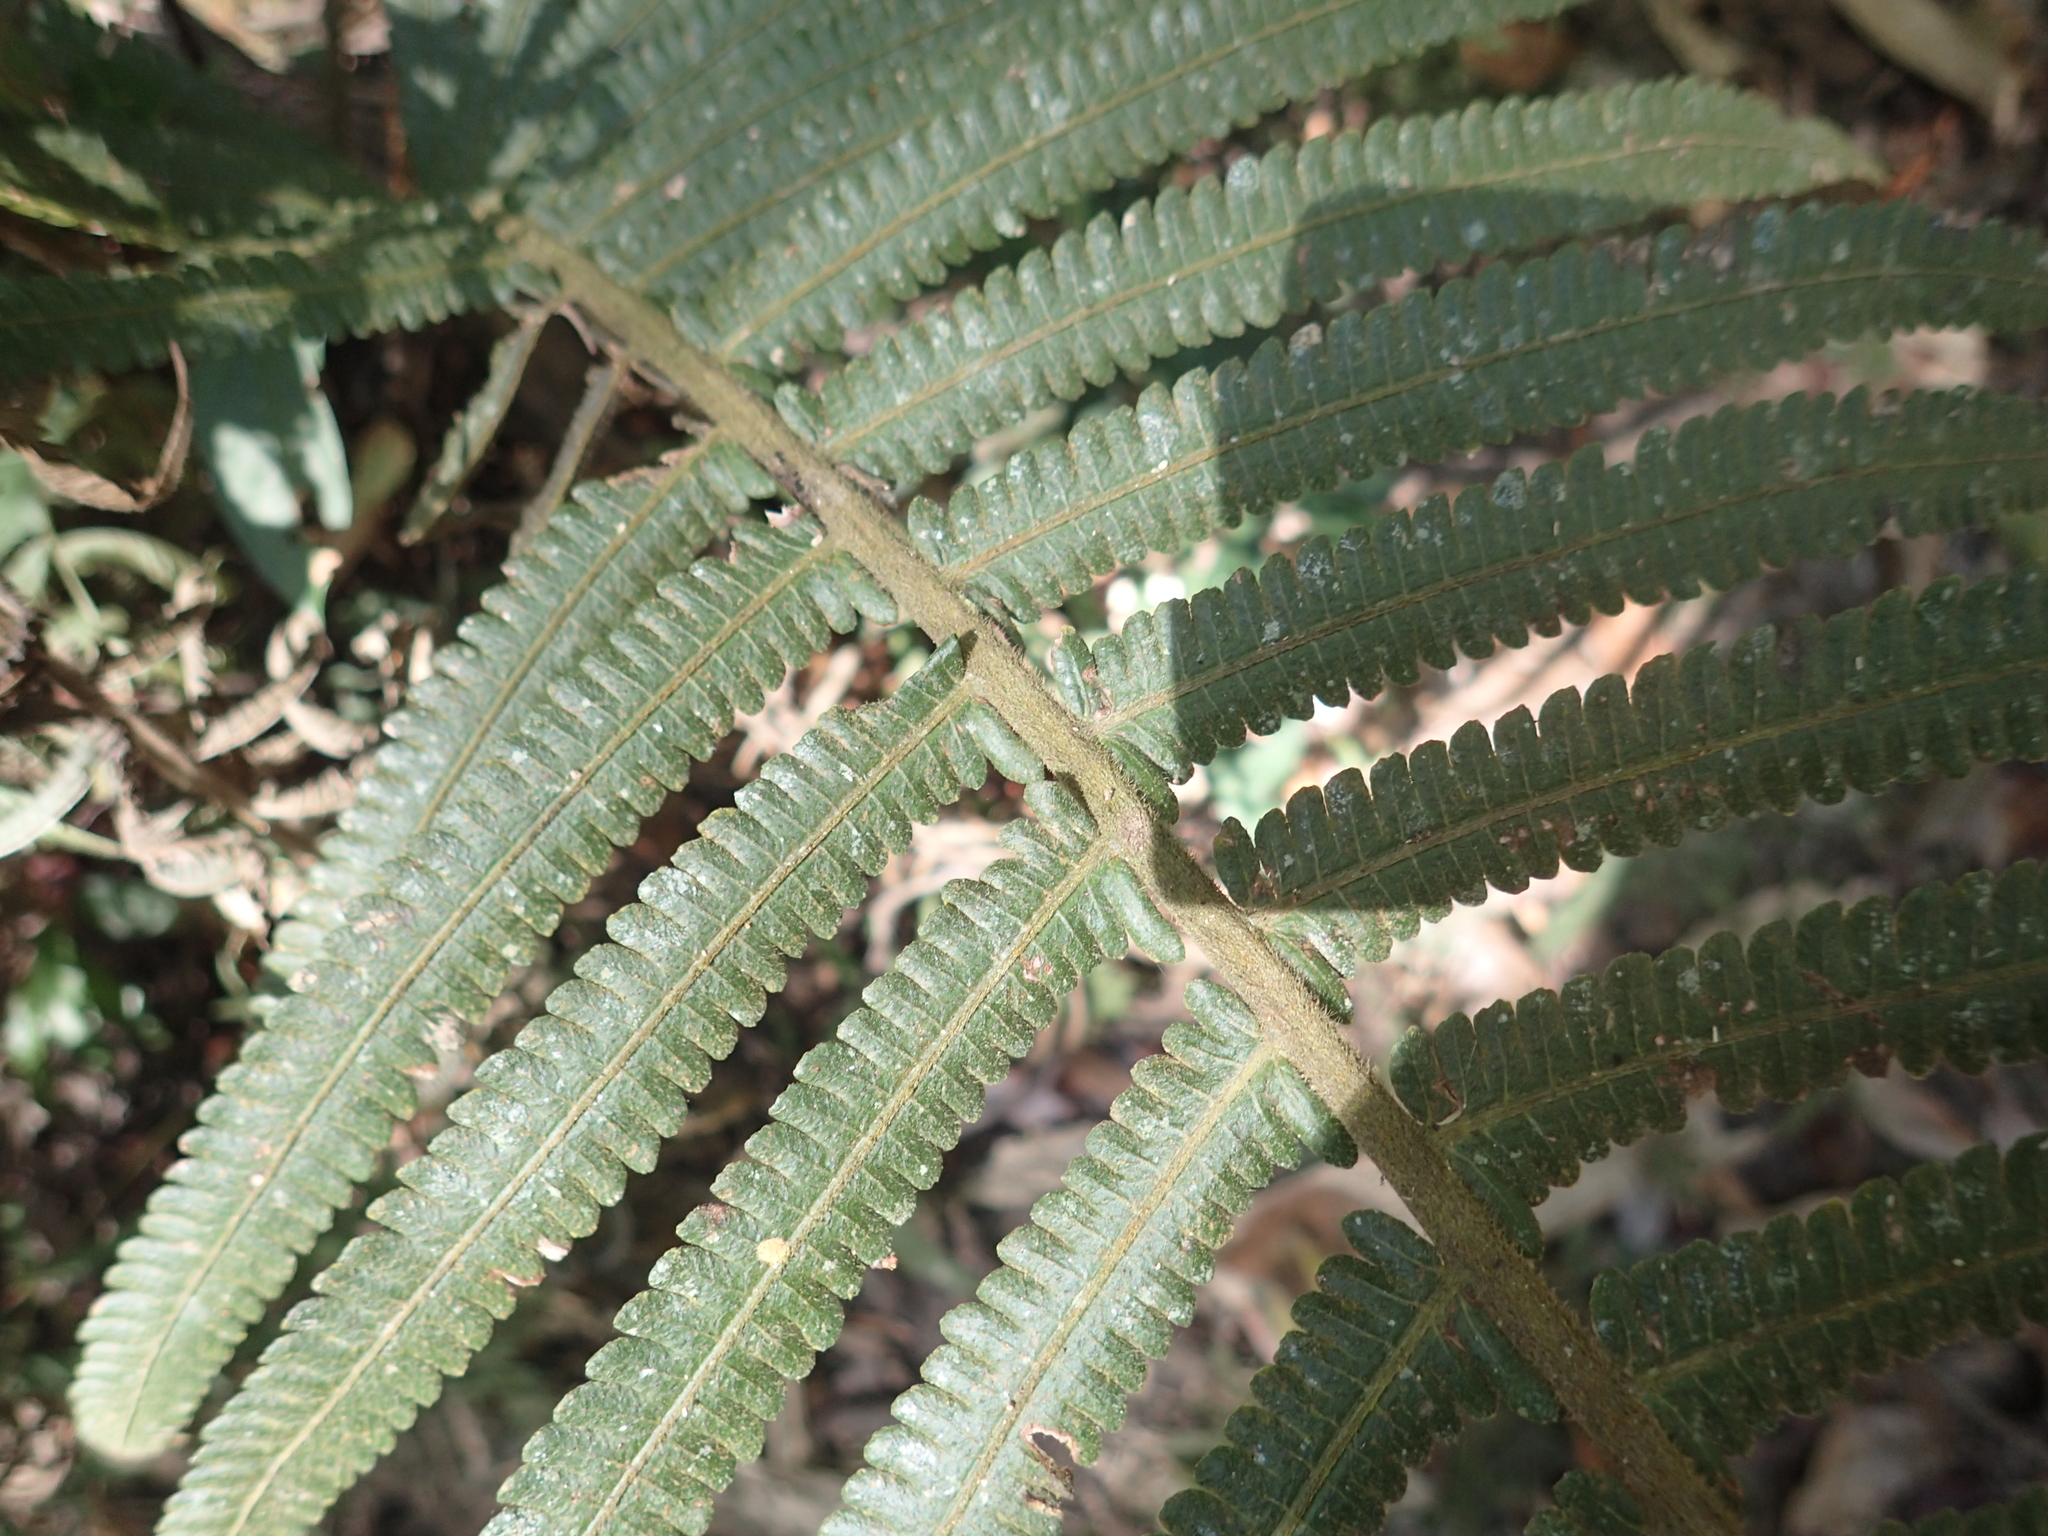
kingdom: Plantae
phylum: Tracheophyta
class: Polypodiopsida
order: Polypodiales
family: Thelypteridaceae
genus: Sphaerostephanos
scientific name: Sphaerostephanos taiwanensis
